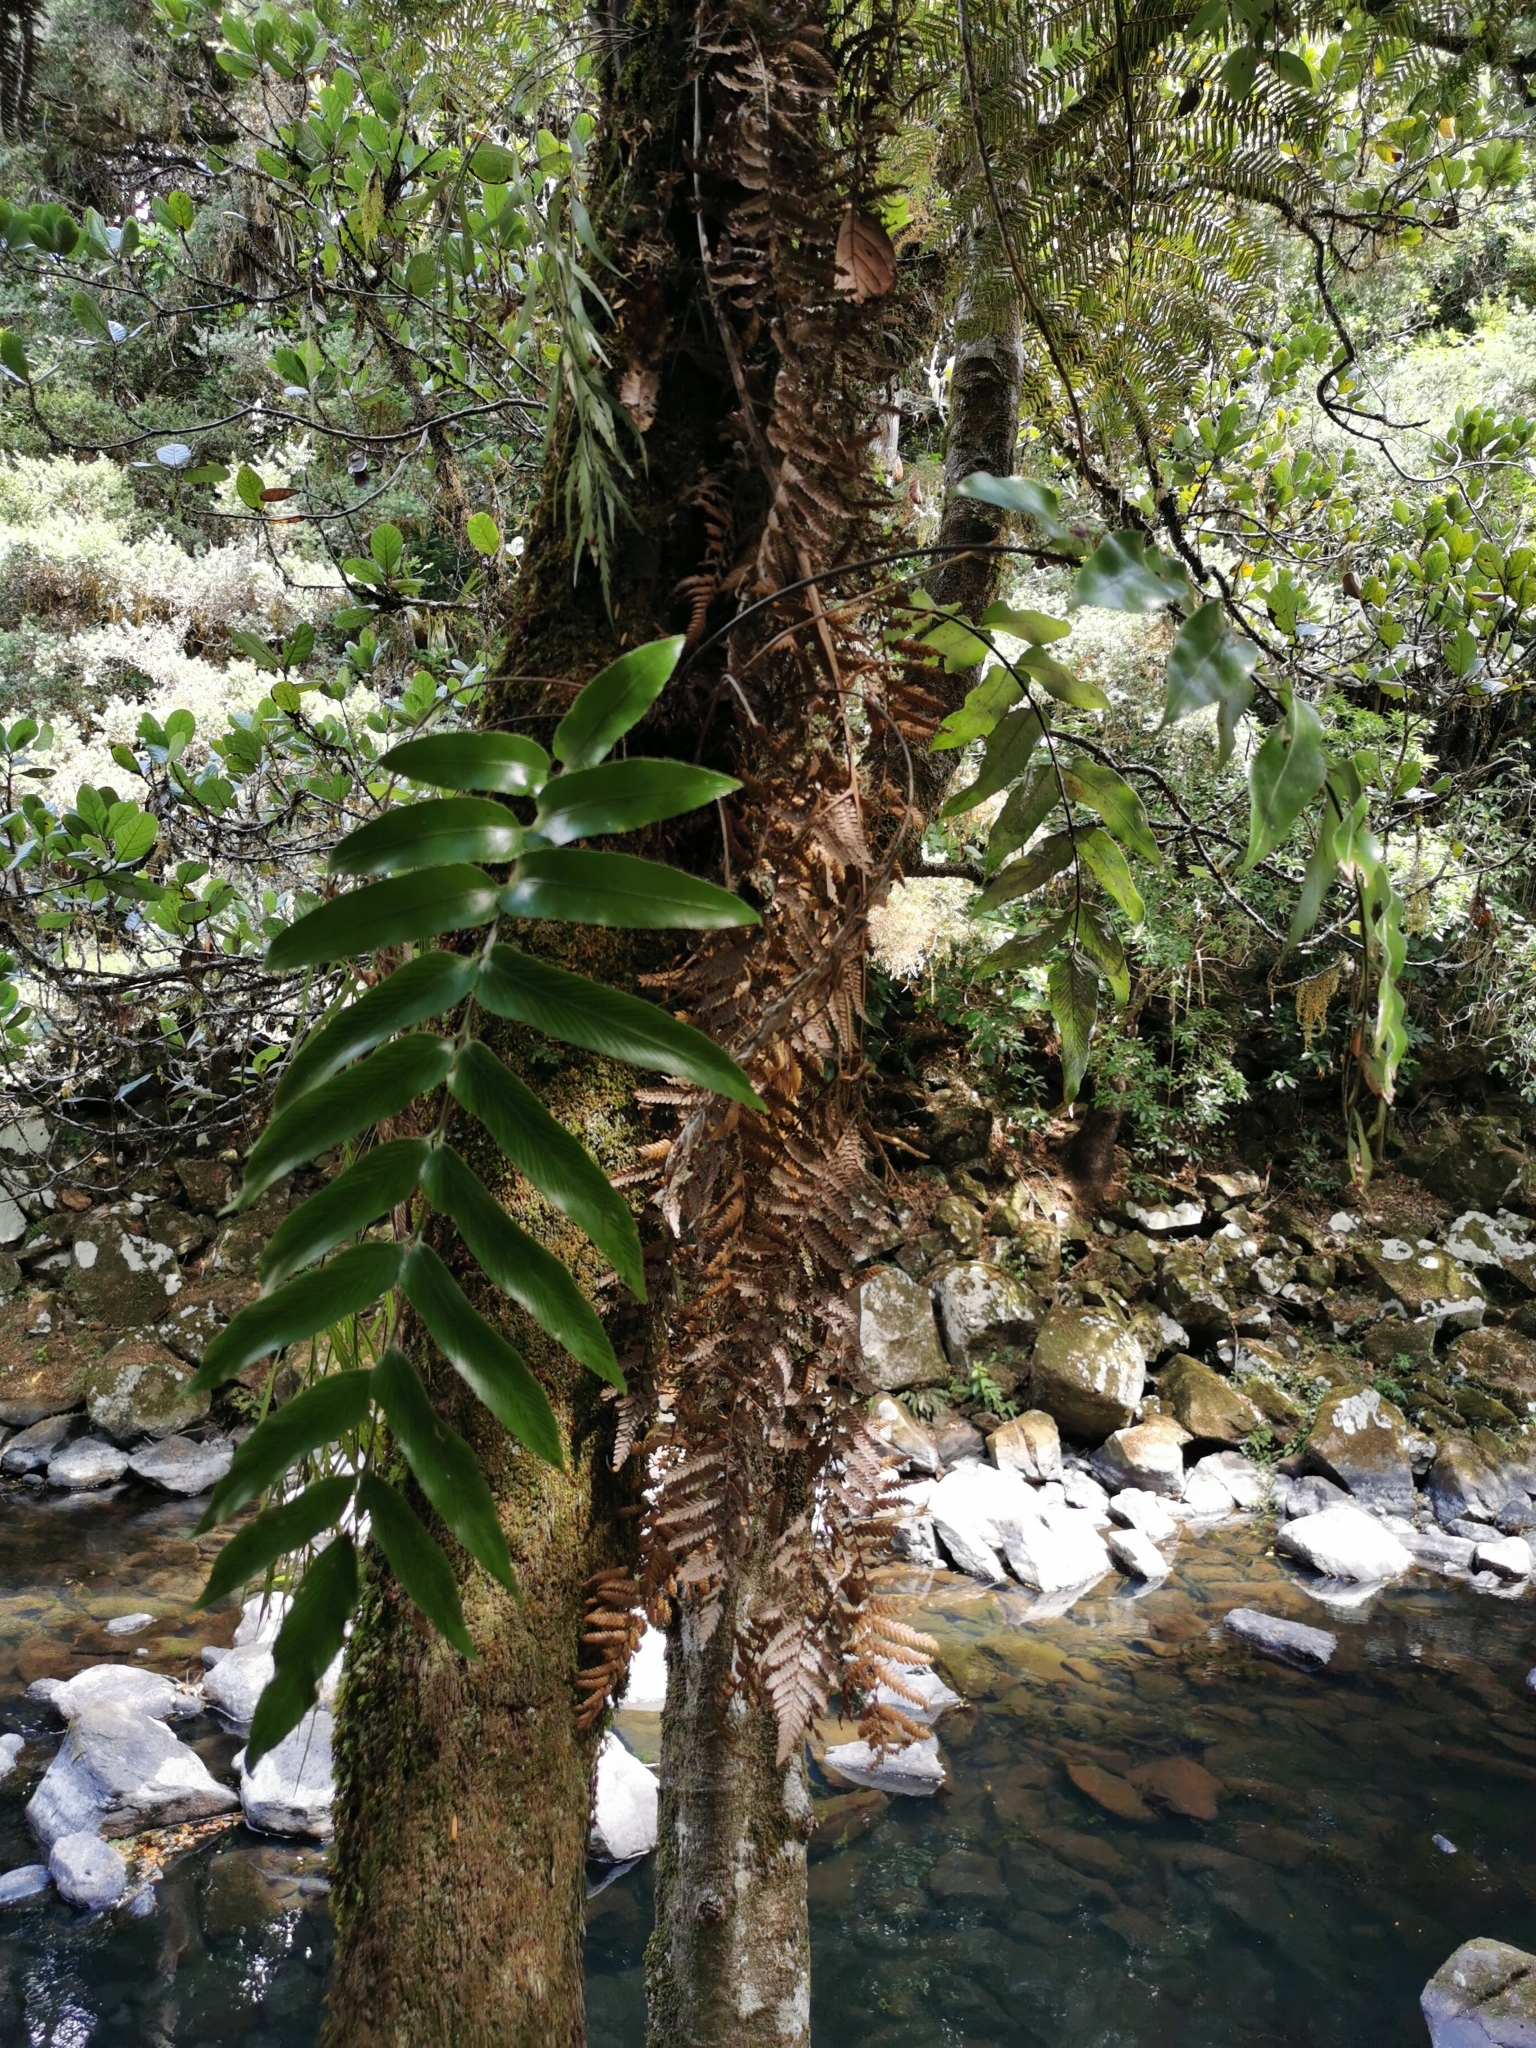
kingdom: Plantae
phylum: Tracheophyta
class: Polypodiopsida
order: Polypodiales
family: Aspleniaceae
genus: Asplenium
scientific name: Asplenium oblongifolium
